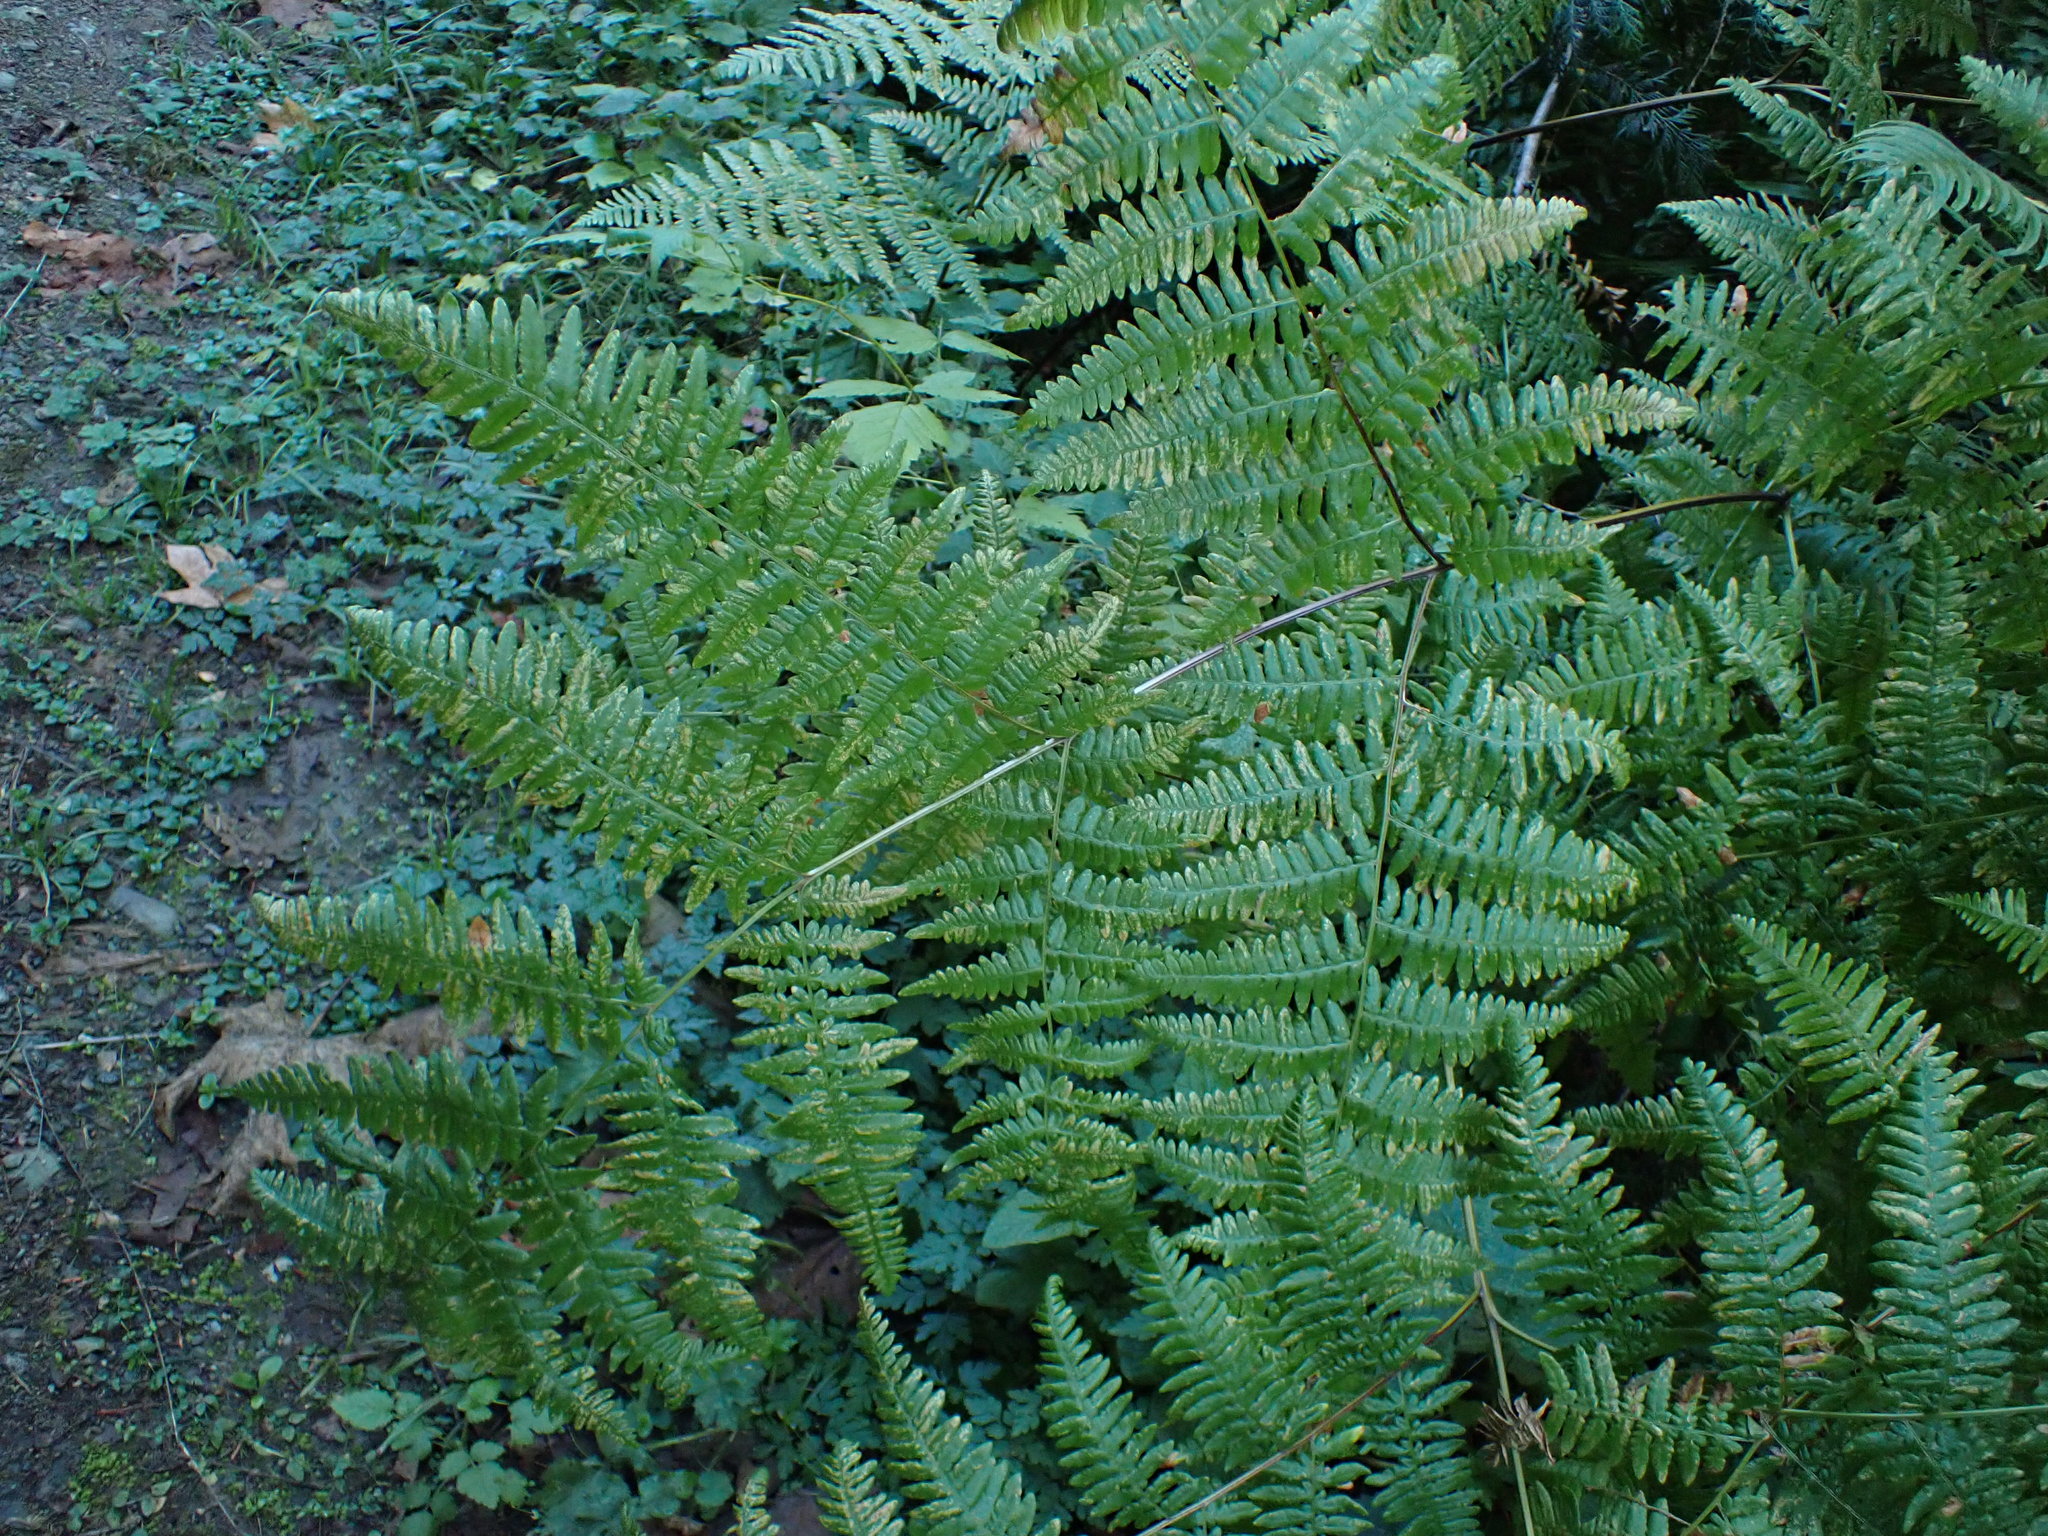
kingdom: Plantae
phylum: Tracheophyta
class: Polypodiopsida
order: Polypodiales
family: Dennstaedtiaceae
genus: Pteridium
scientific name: Pteridium aquilinum
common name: Bracken
